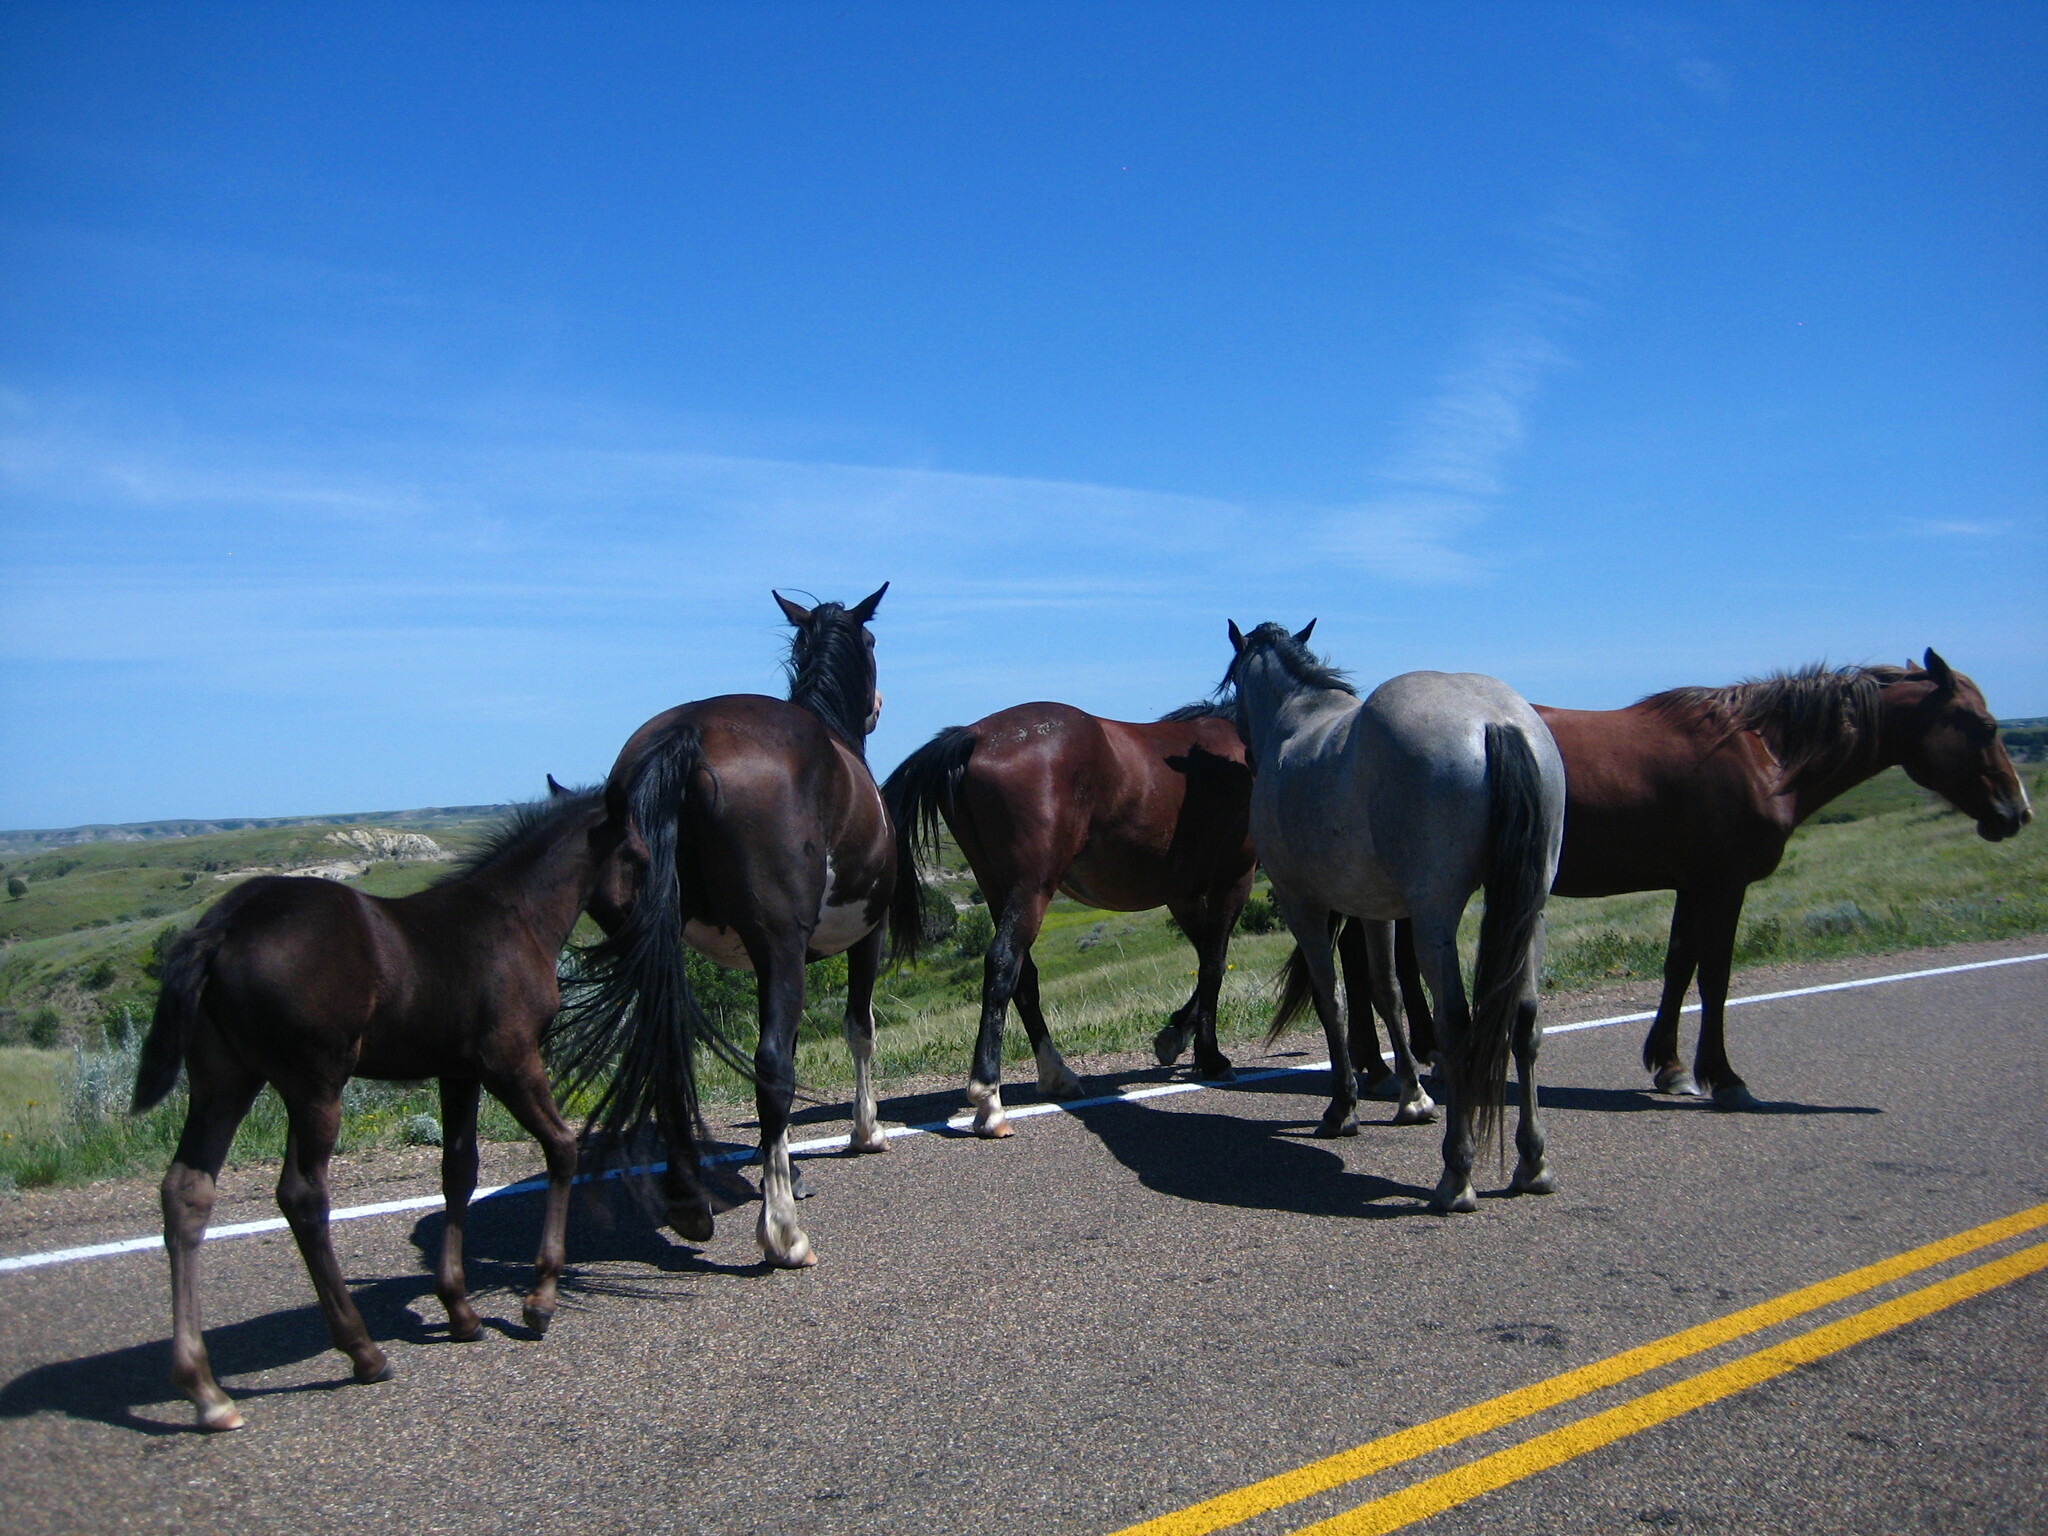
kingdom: Animalia
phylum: Chordata
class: Mammalia
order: Perissodactyla
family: Equidae
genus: Equus
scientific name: Equus caballus
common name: Horse
